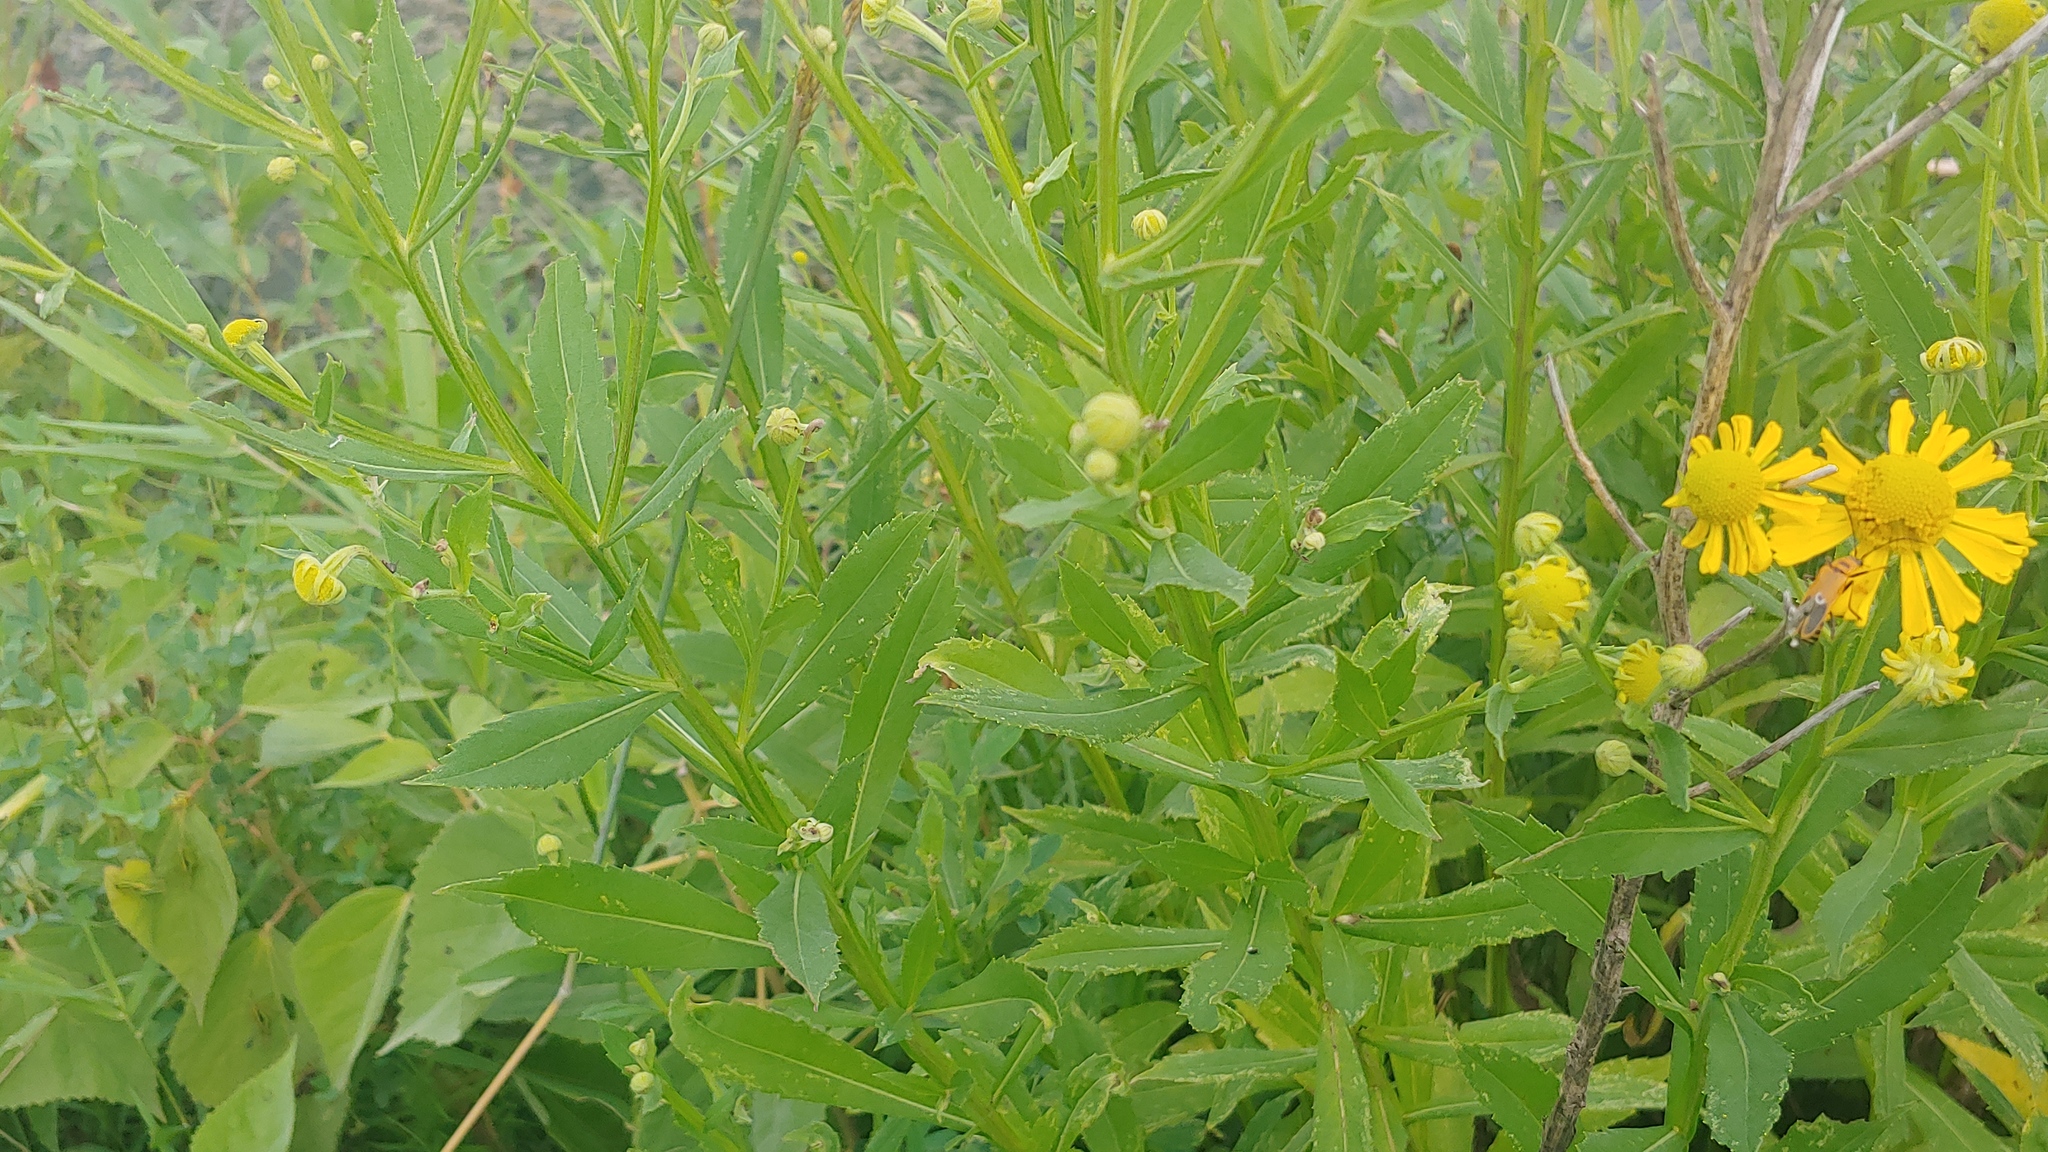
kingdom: Plantae
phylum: Tracheophyta
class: Magnoliopsida
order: Asterales
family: Asteraceae
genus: Helenium
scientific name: Helenium autumnale
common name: Sneezeweed
